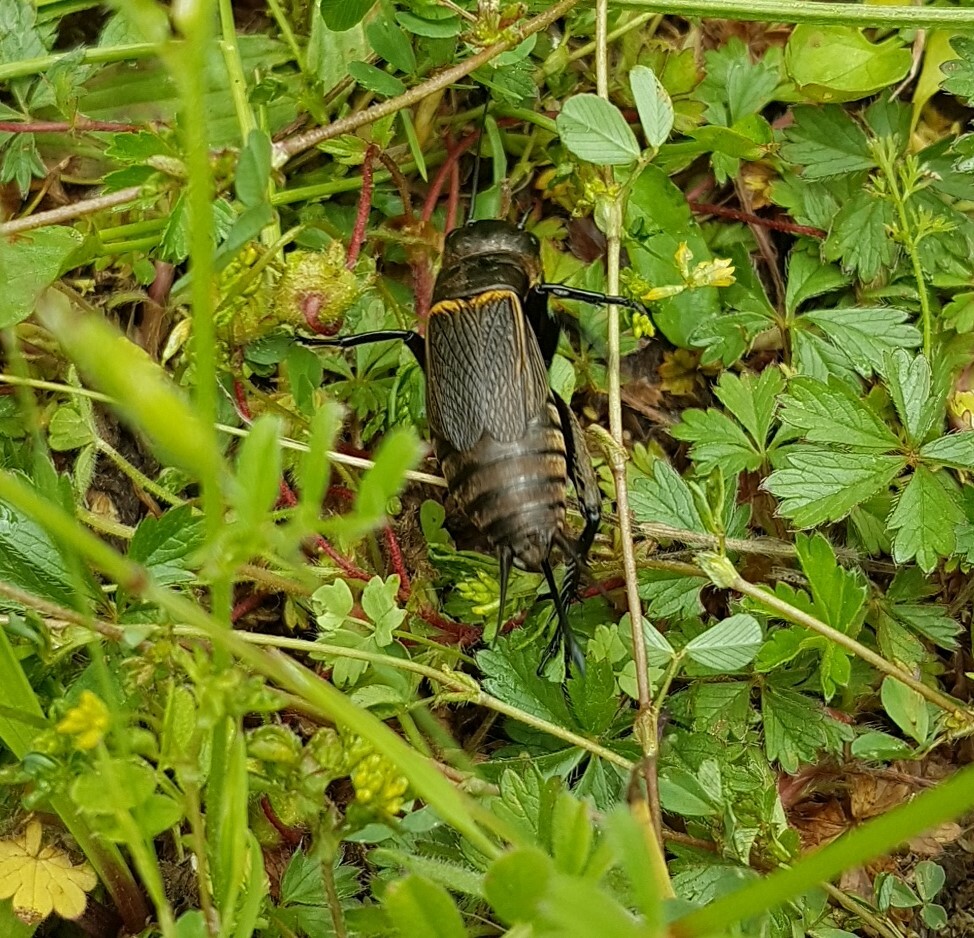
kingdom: Animalia
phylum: Arthropoda
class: Insecta
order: Orthoptera
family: Gryllidae
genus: Gryllus
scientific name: Gryllus campestris
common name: Field cricket
